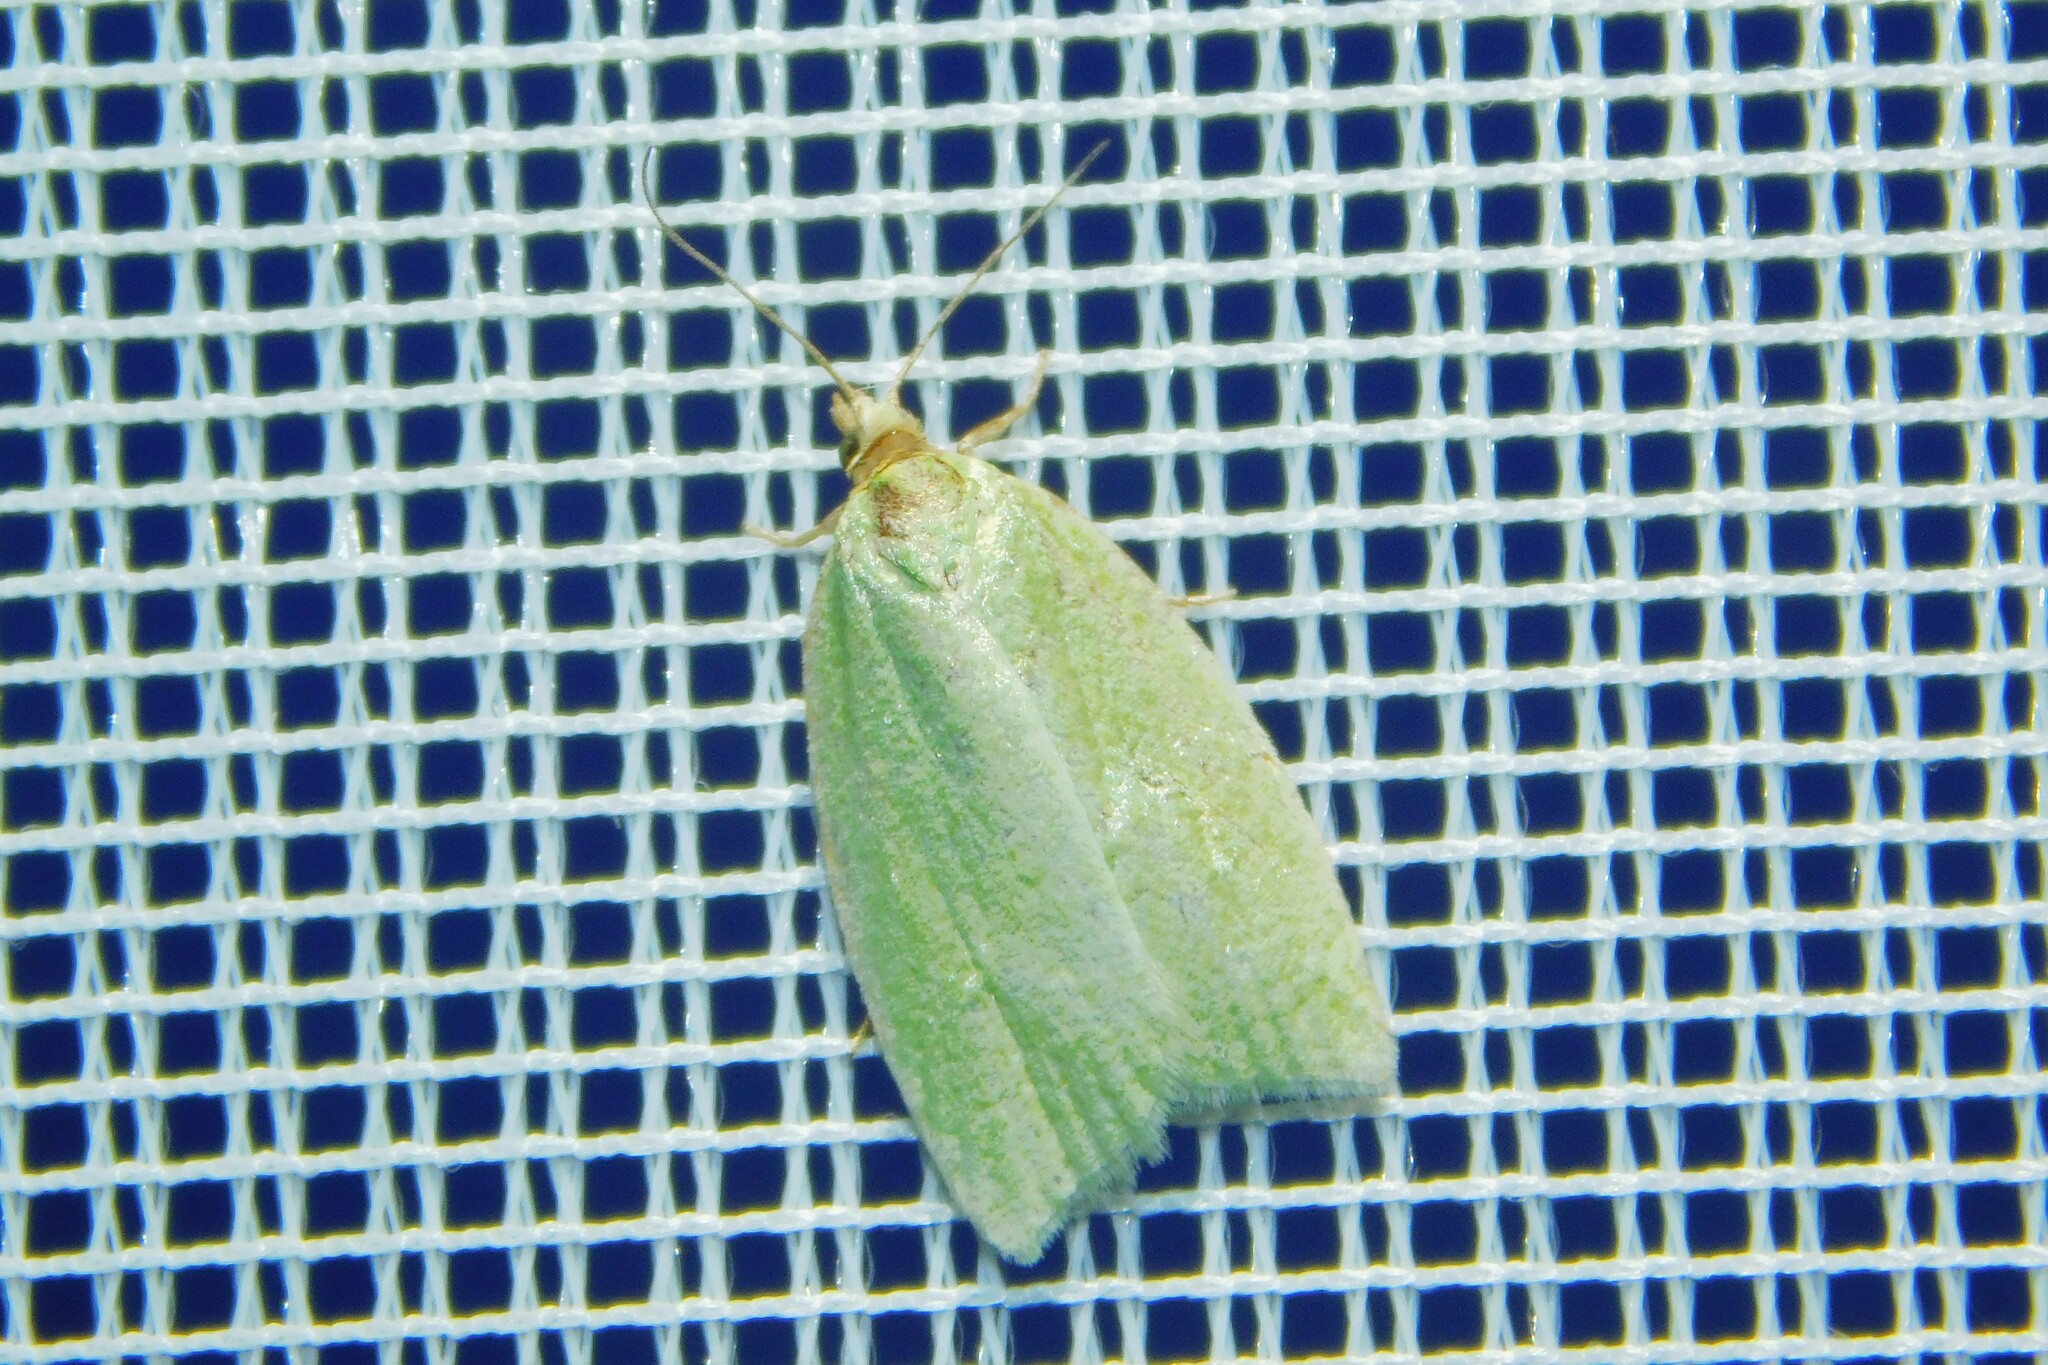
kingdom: Animalia
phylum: Arthropoda
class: Insecta
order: Lepidoptera
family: Tortricidae
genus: Tortrix
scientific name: Tortrix viridana
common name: Green oak tortrix
